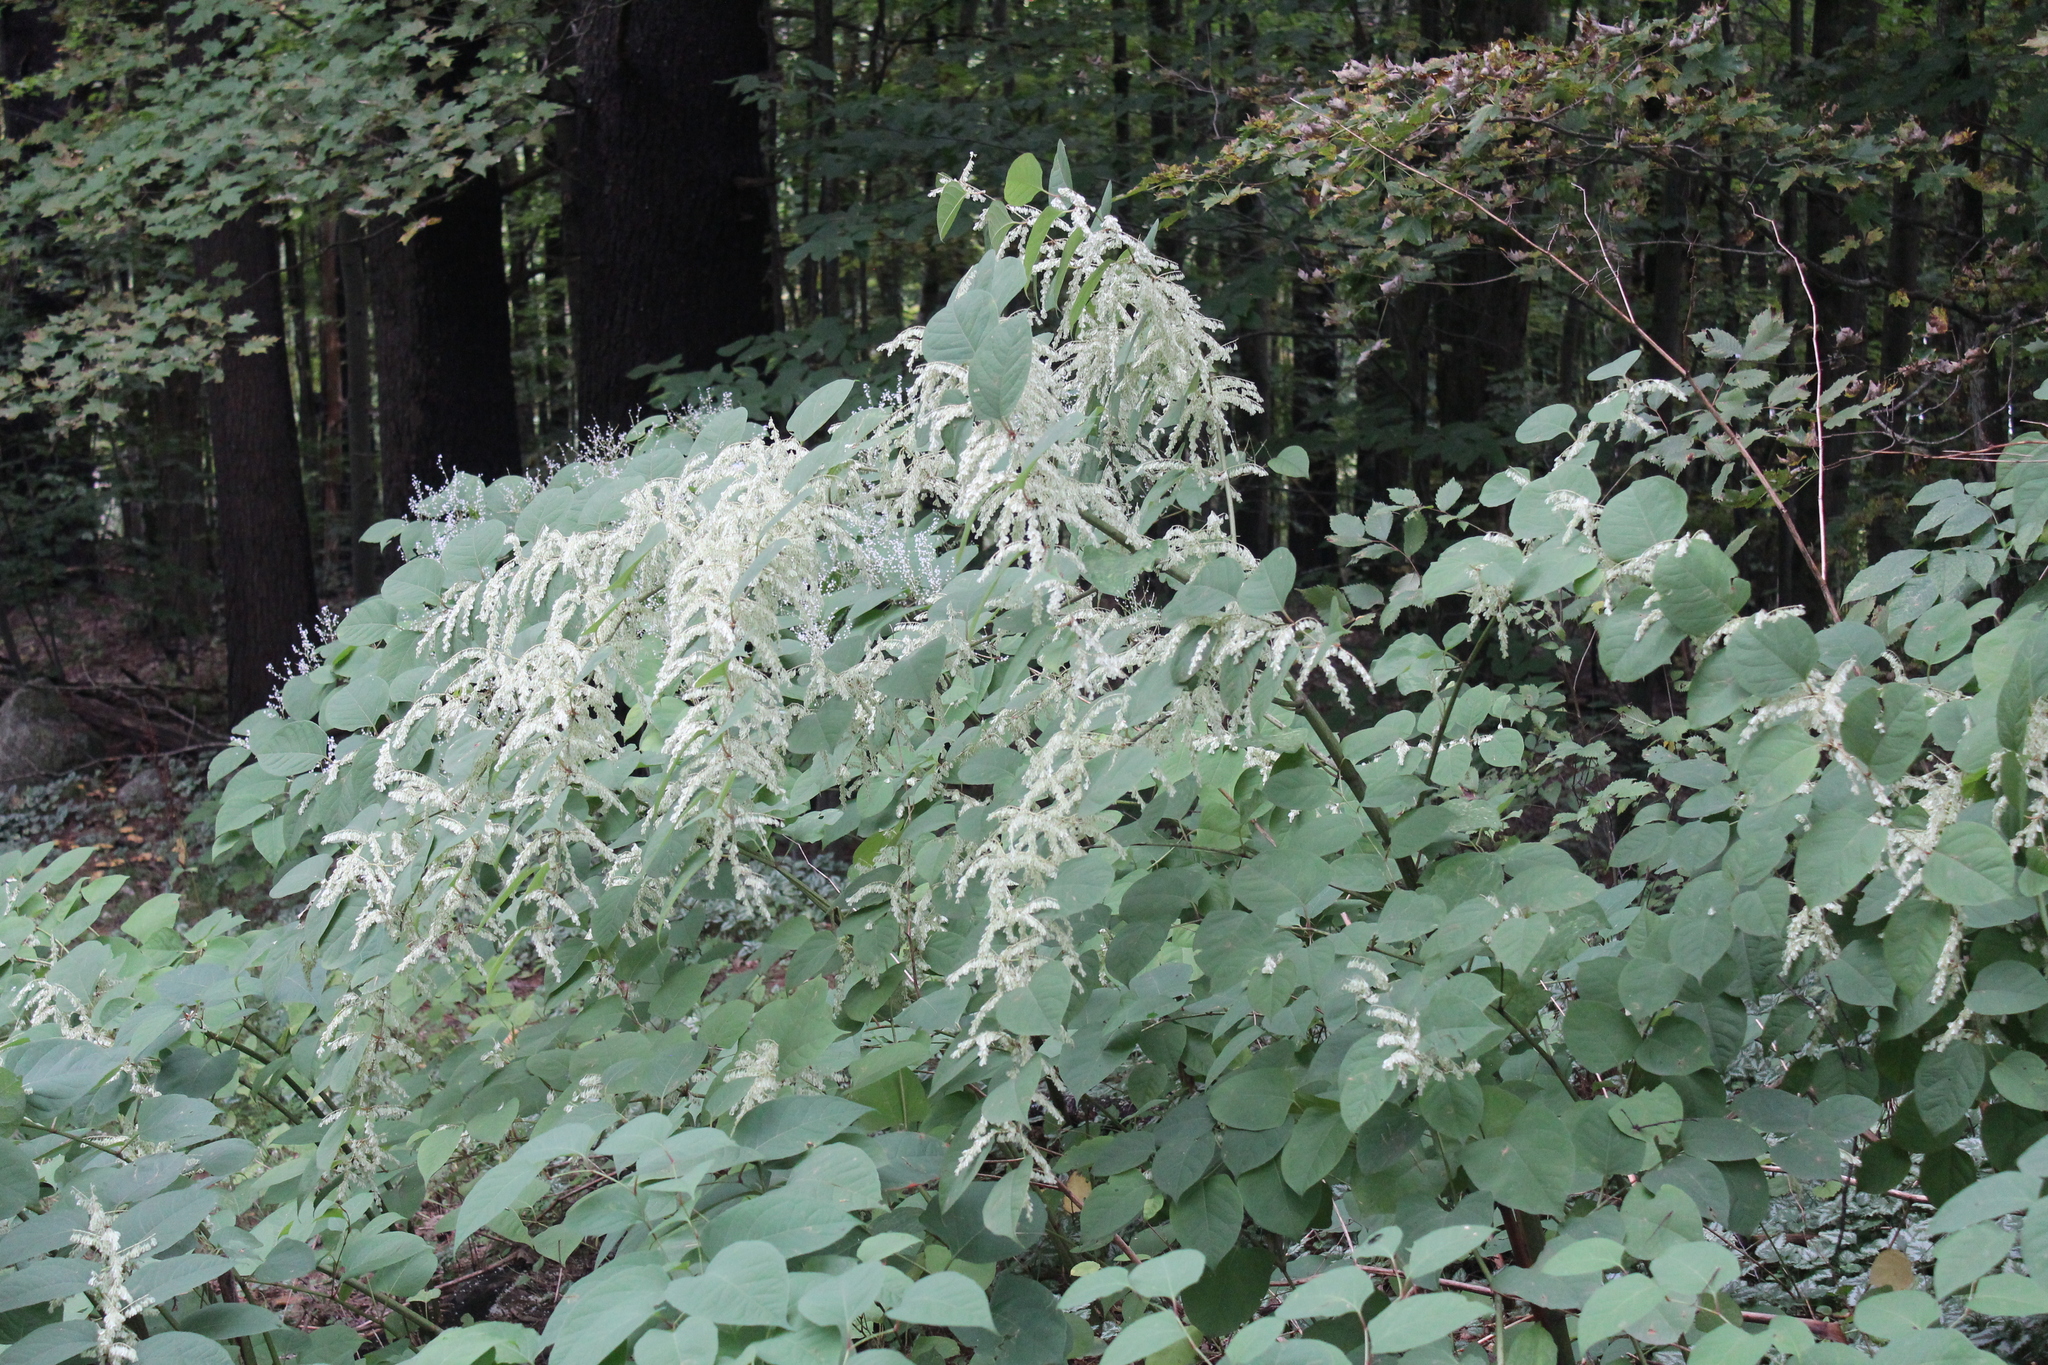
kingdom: Plantae
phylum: Tracheophyta
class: Magnoliopsida
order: Caryophyllales
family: Polygonaceae
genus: Reynoutria
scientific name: Reynoutria japonica
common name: Japanese knotweed
